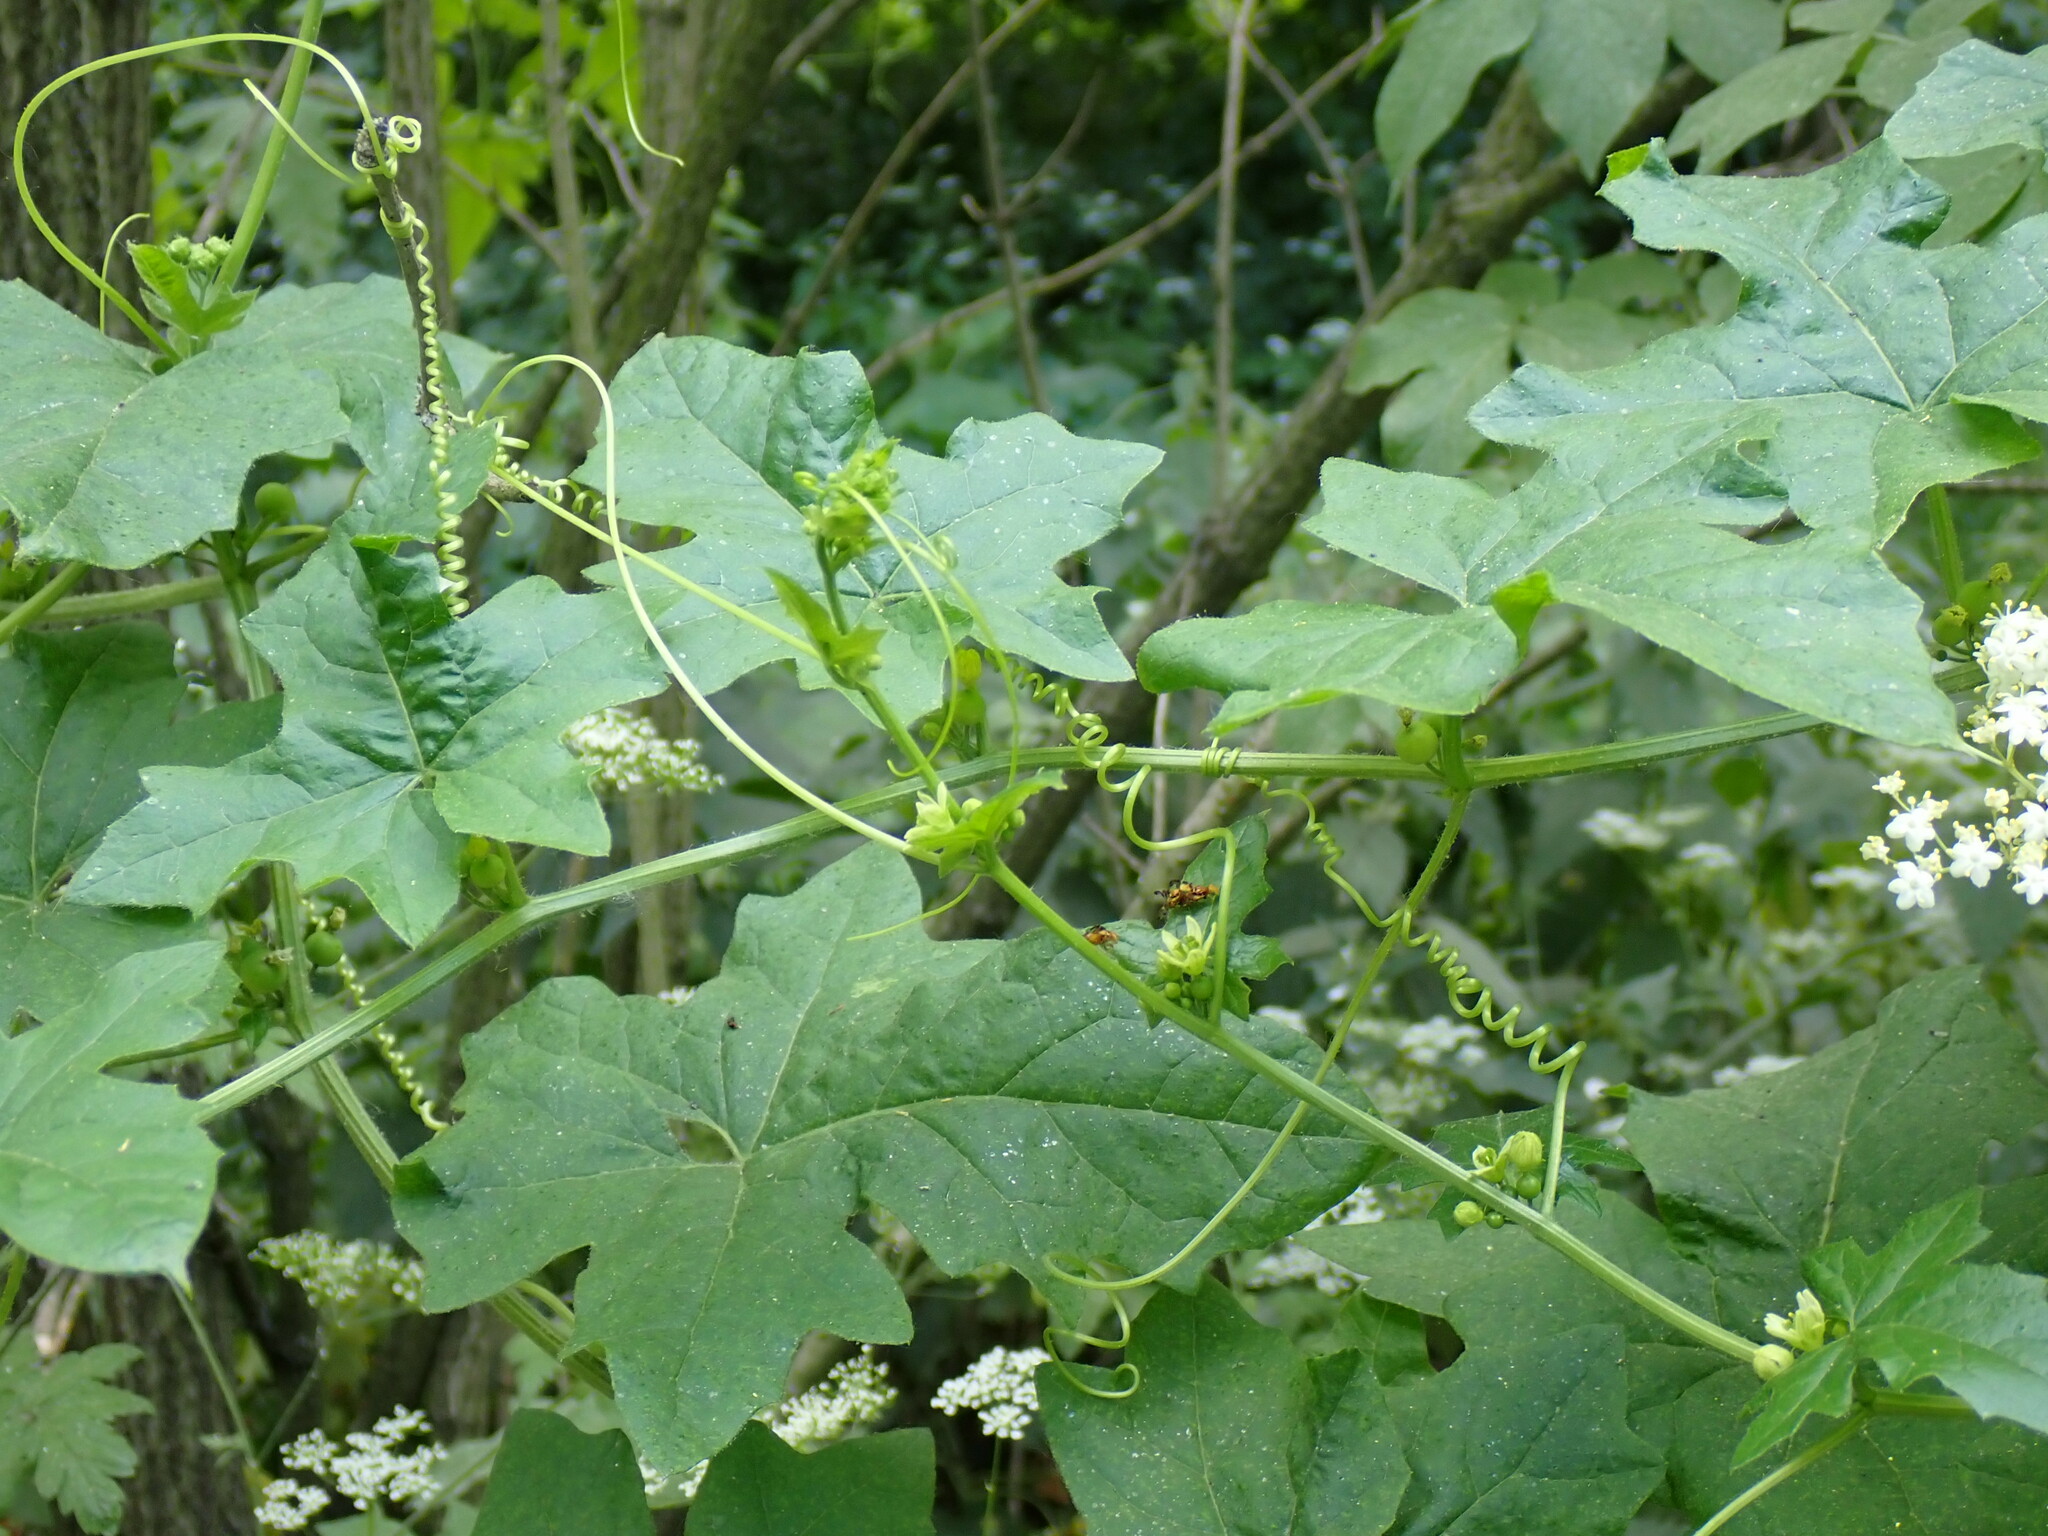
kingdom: Plantae
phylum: Tracheophyta
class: Magnoliopsida
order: Cucurbitales
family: Cucurbitaceae
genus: Bryonia
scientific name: Bryonia alba
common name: White bryony
